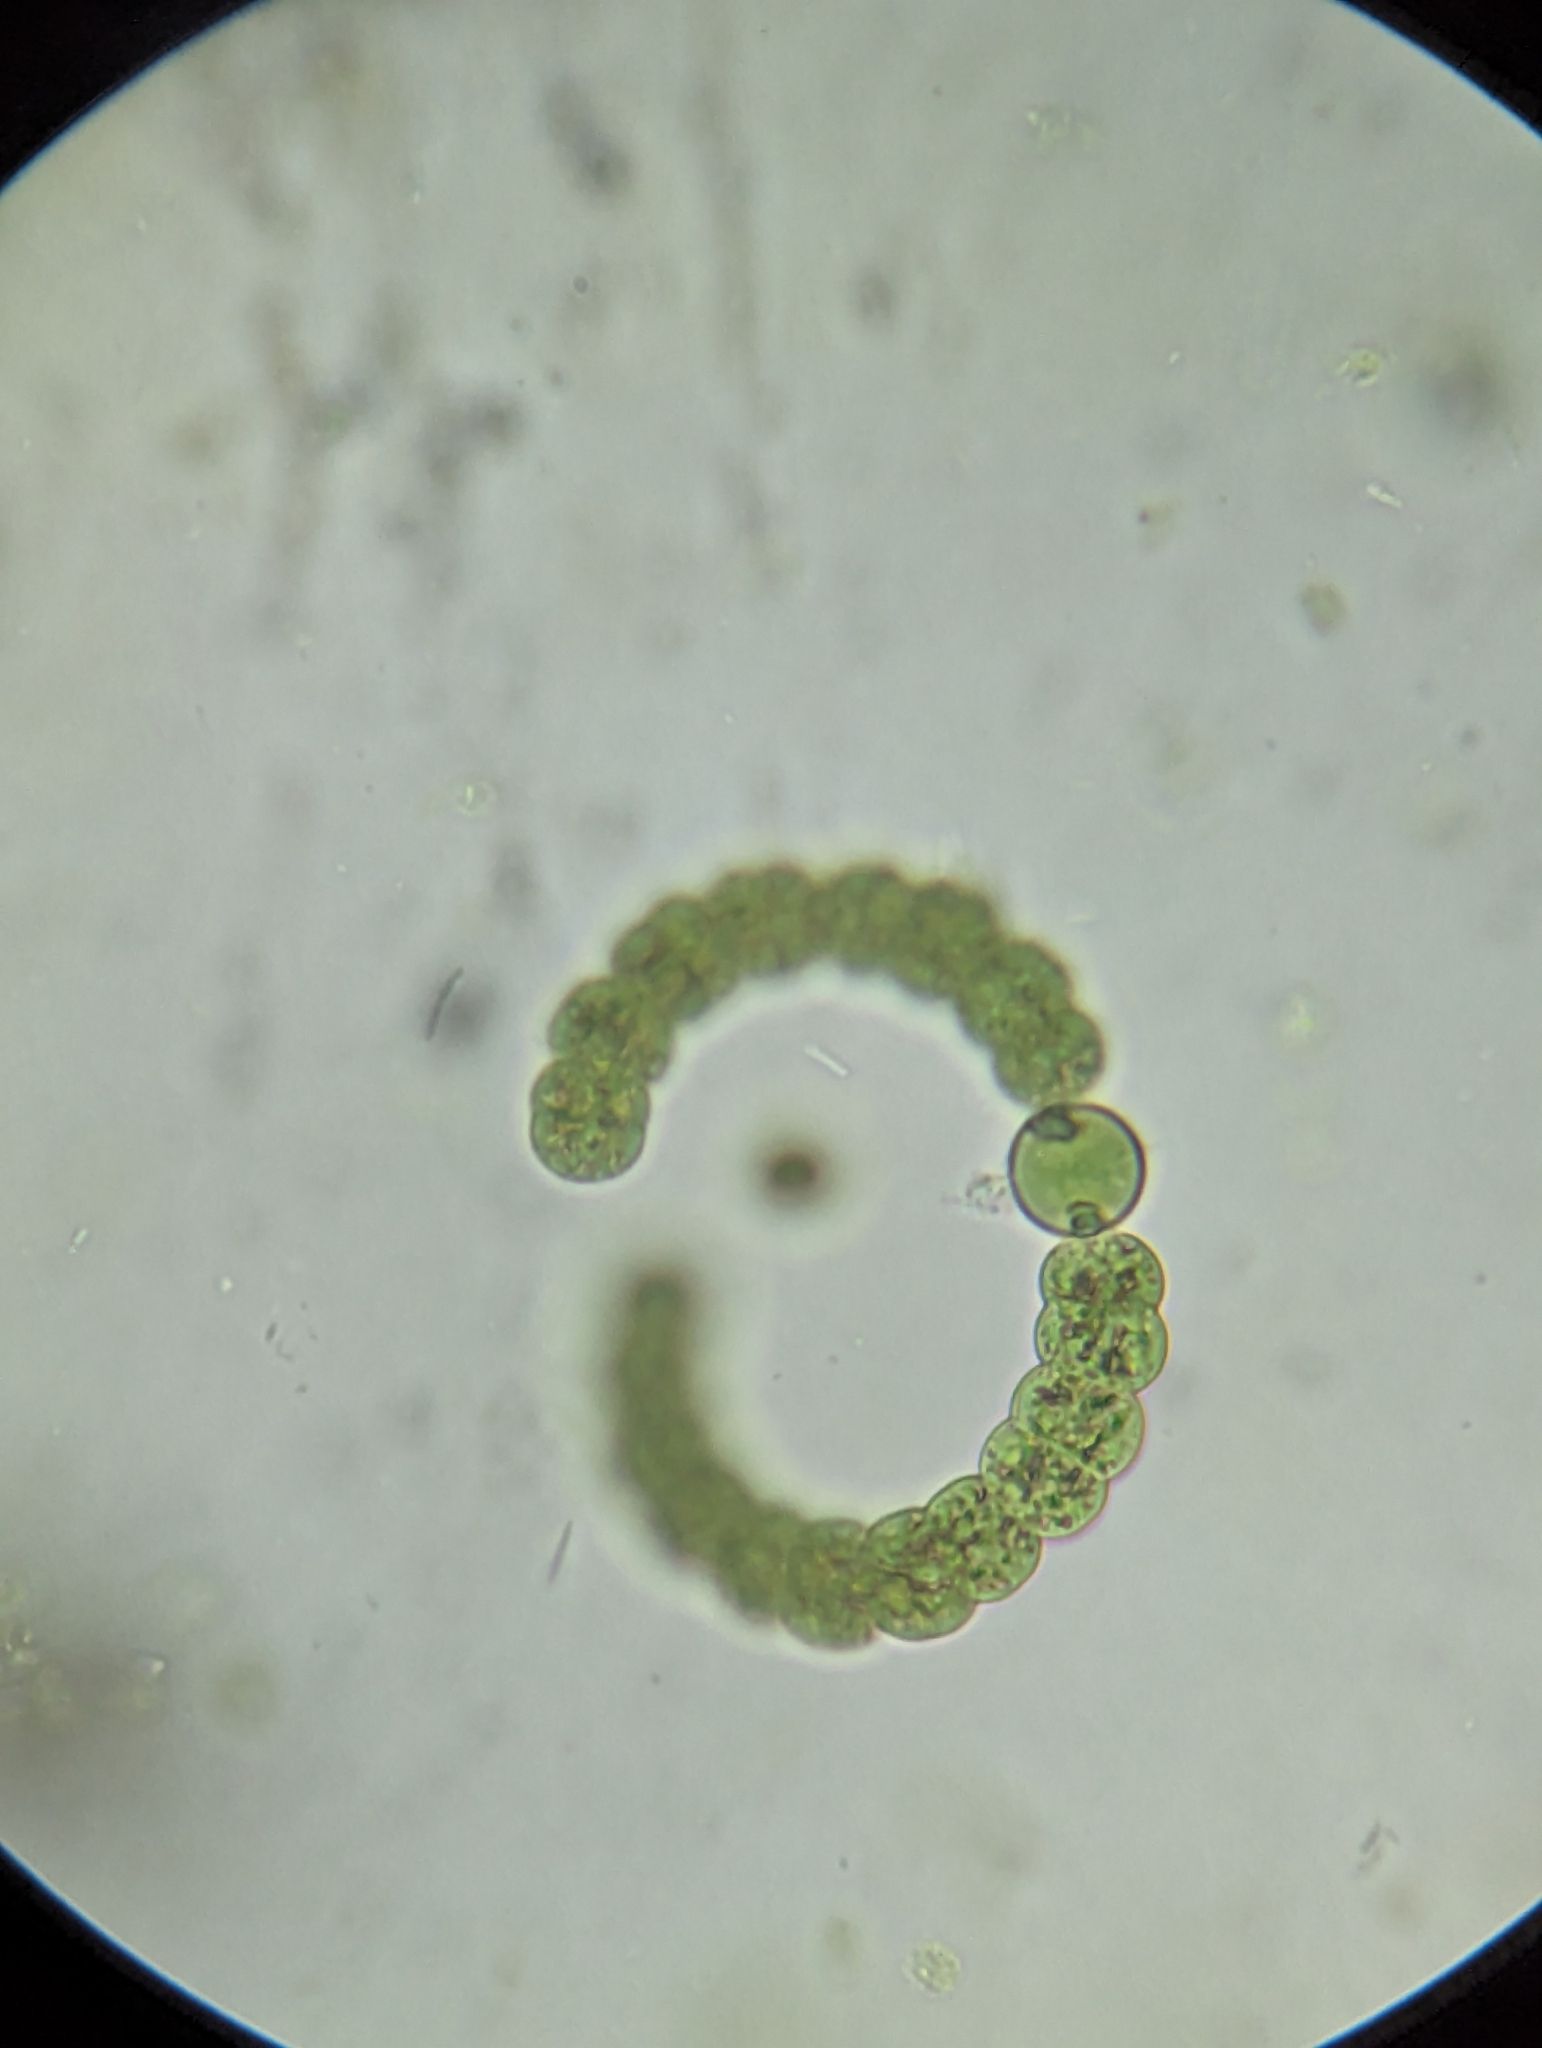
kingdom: Bacteria
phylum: Cyanobacteria
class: Cyanobacteriia
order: Cyanobacteriales
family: Aphanizomenonaceae
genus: Dolichospermum
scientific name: Dolichospermum
